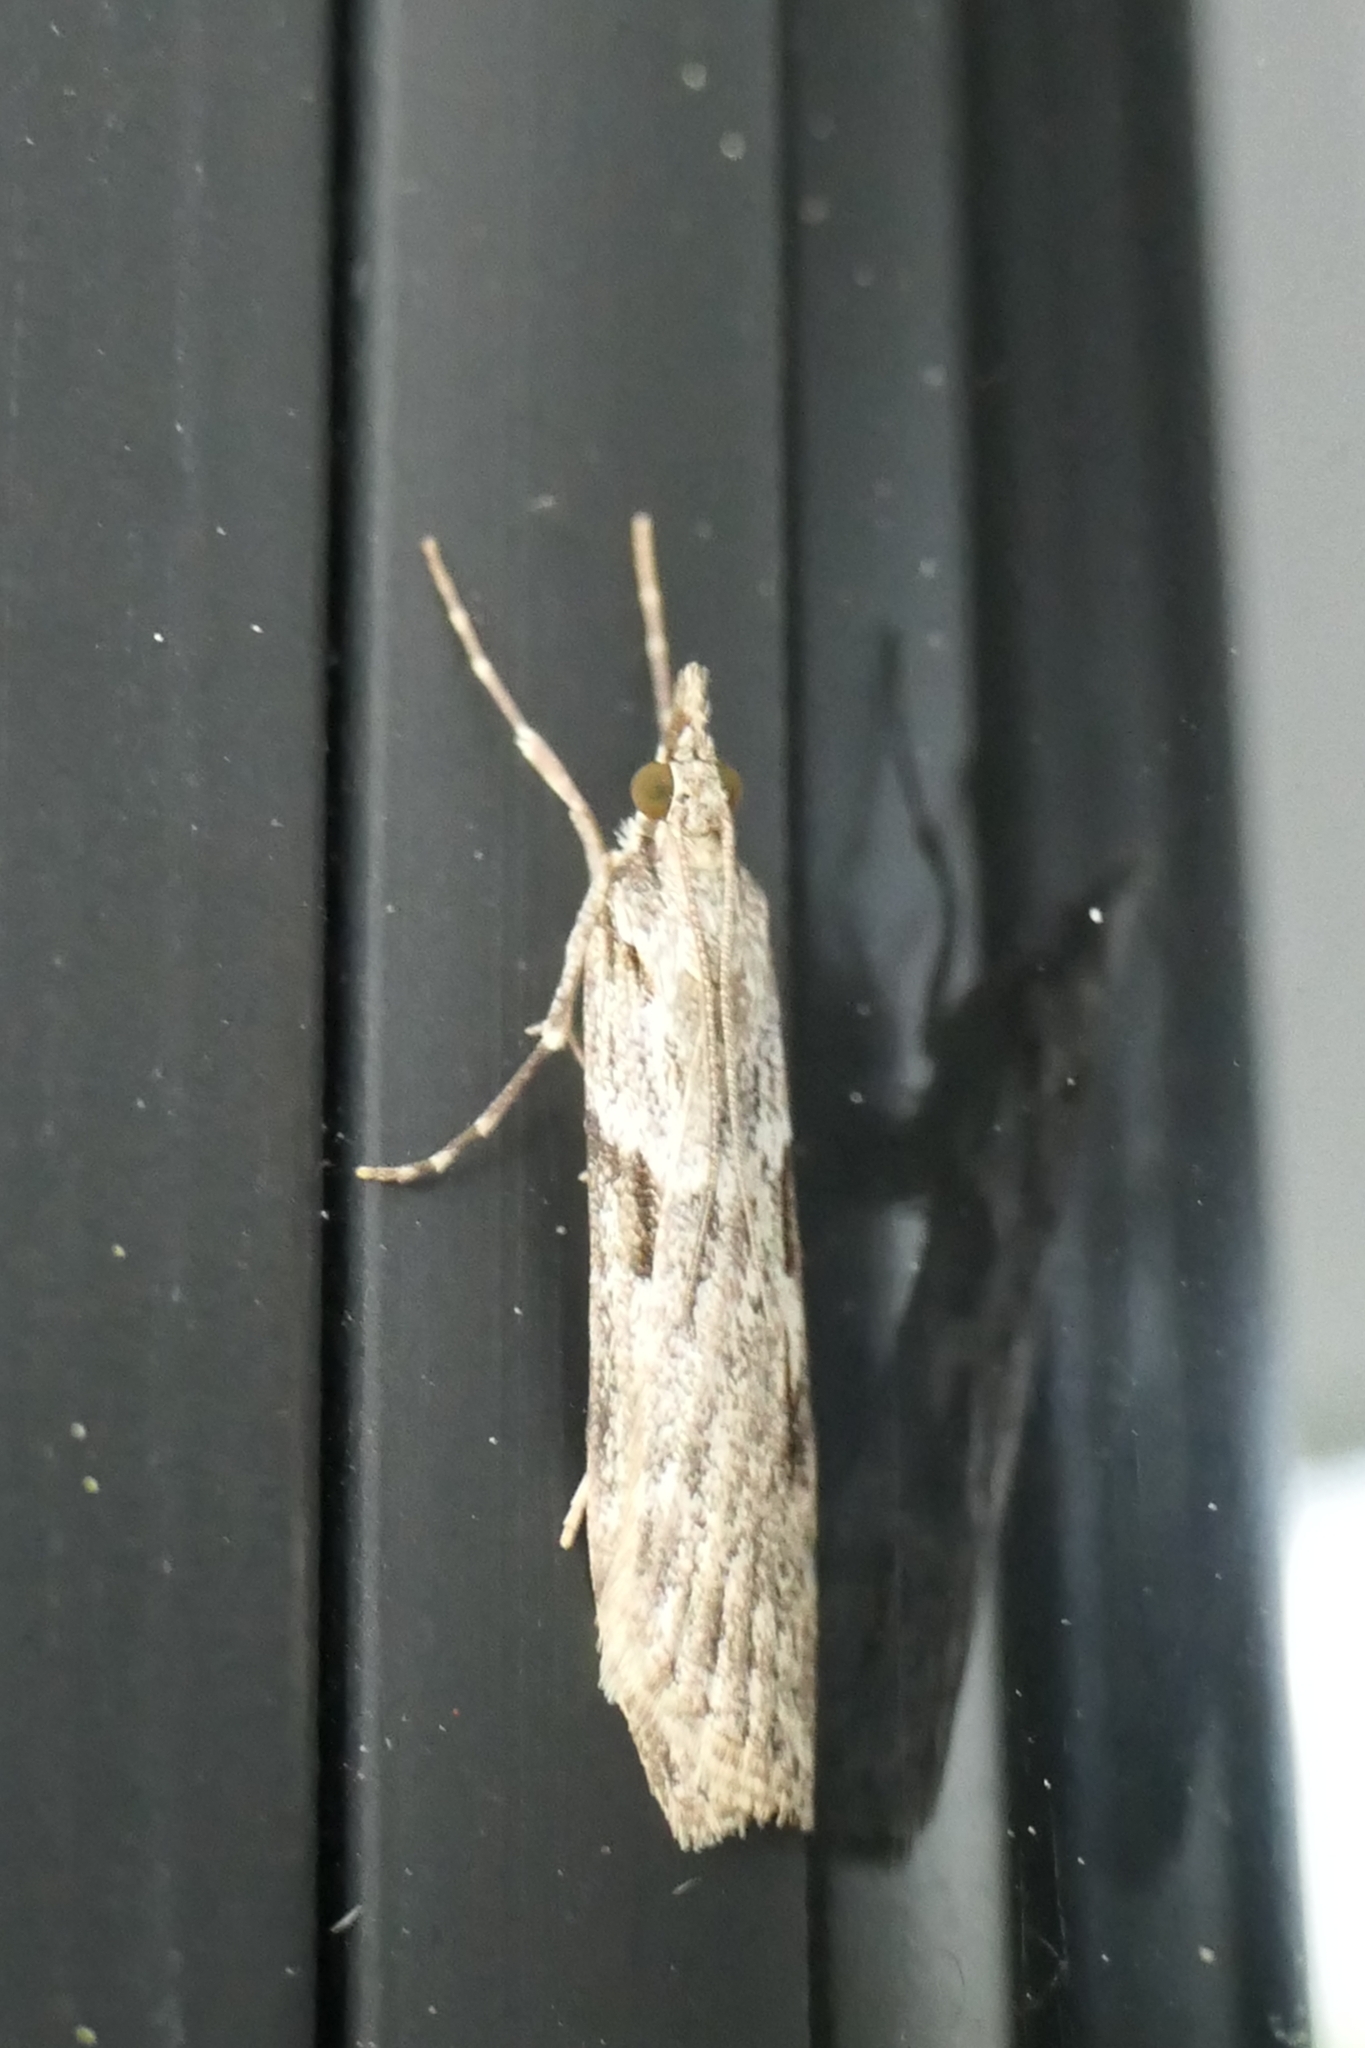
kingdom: Animalia
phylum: Arthropoda
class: Insecta
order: Lepidoptera
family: Crambidae
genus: Scoparia
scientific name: Scoparia halopis
